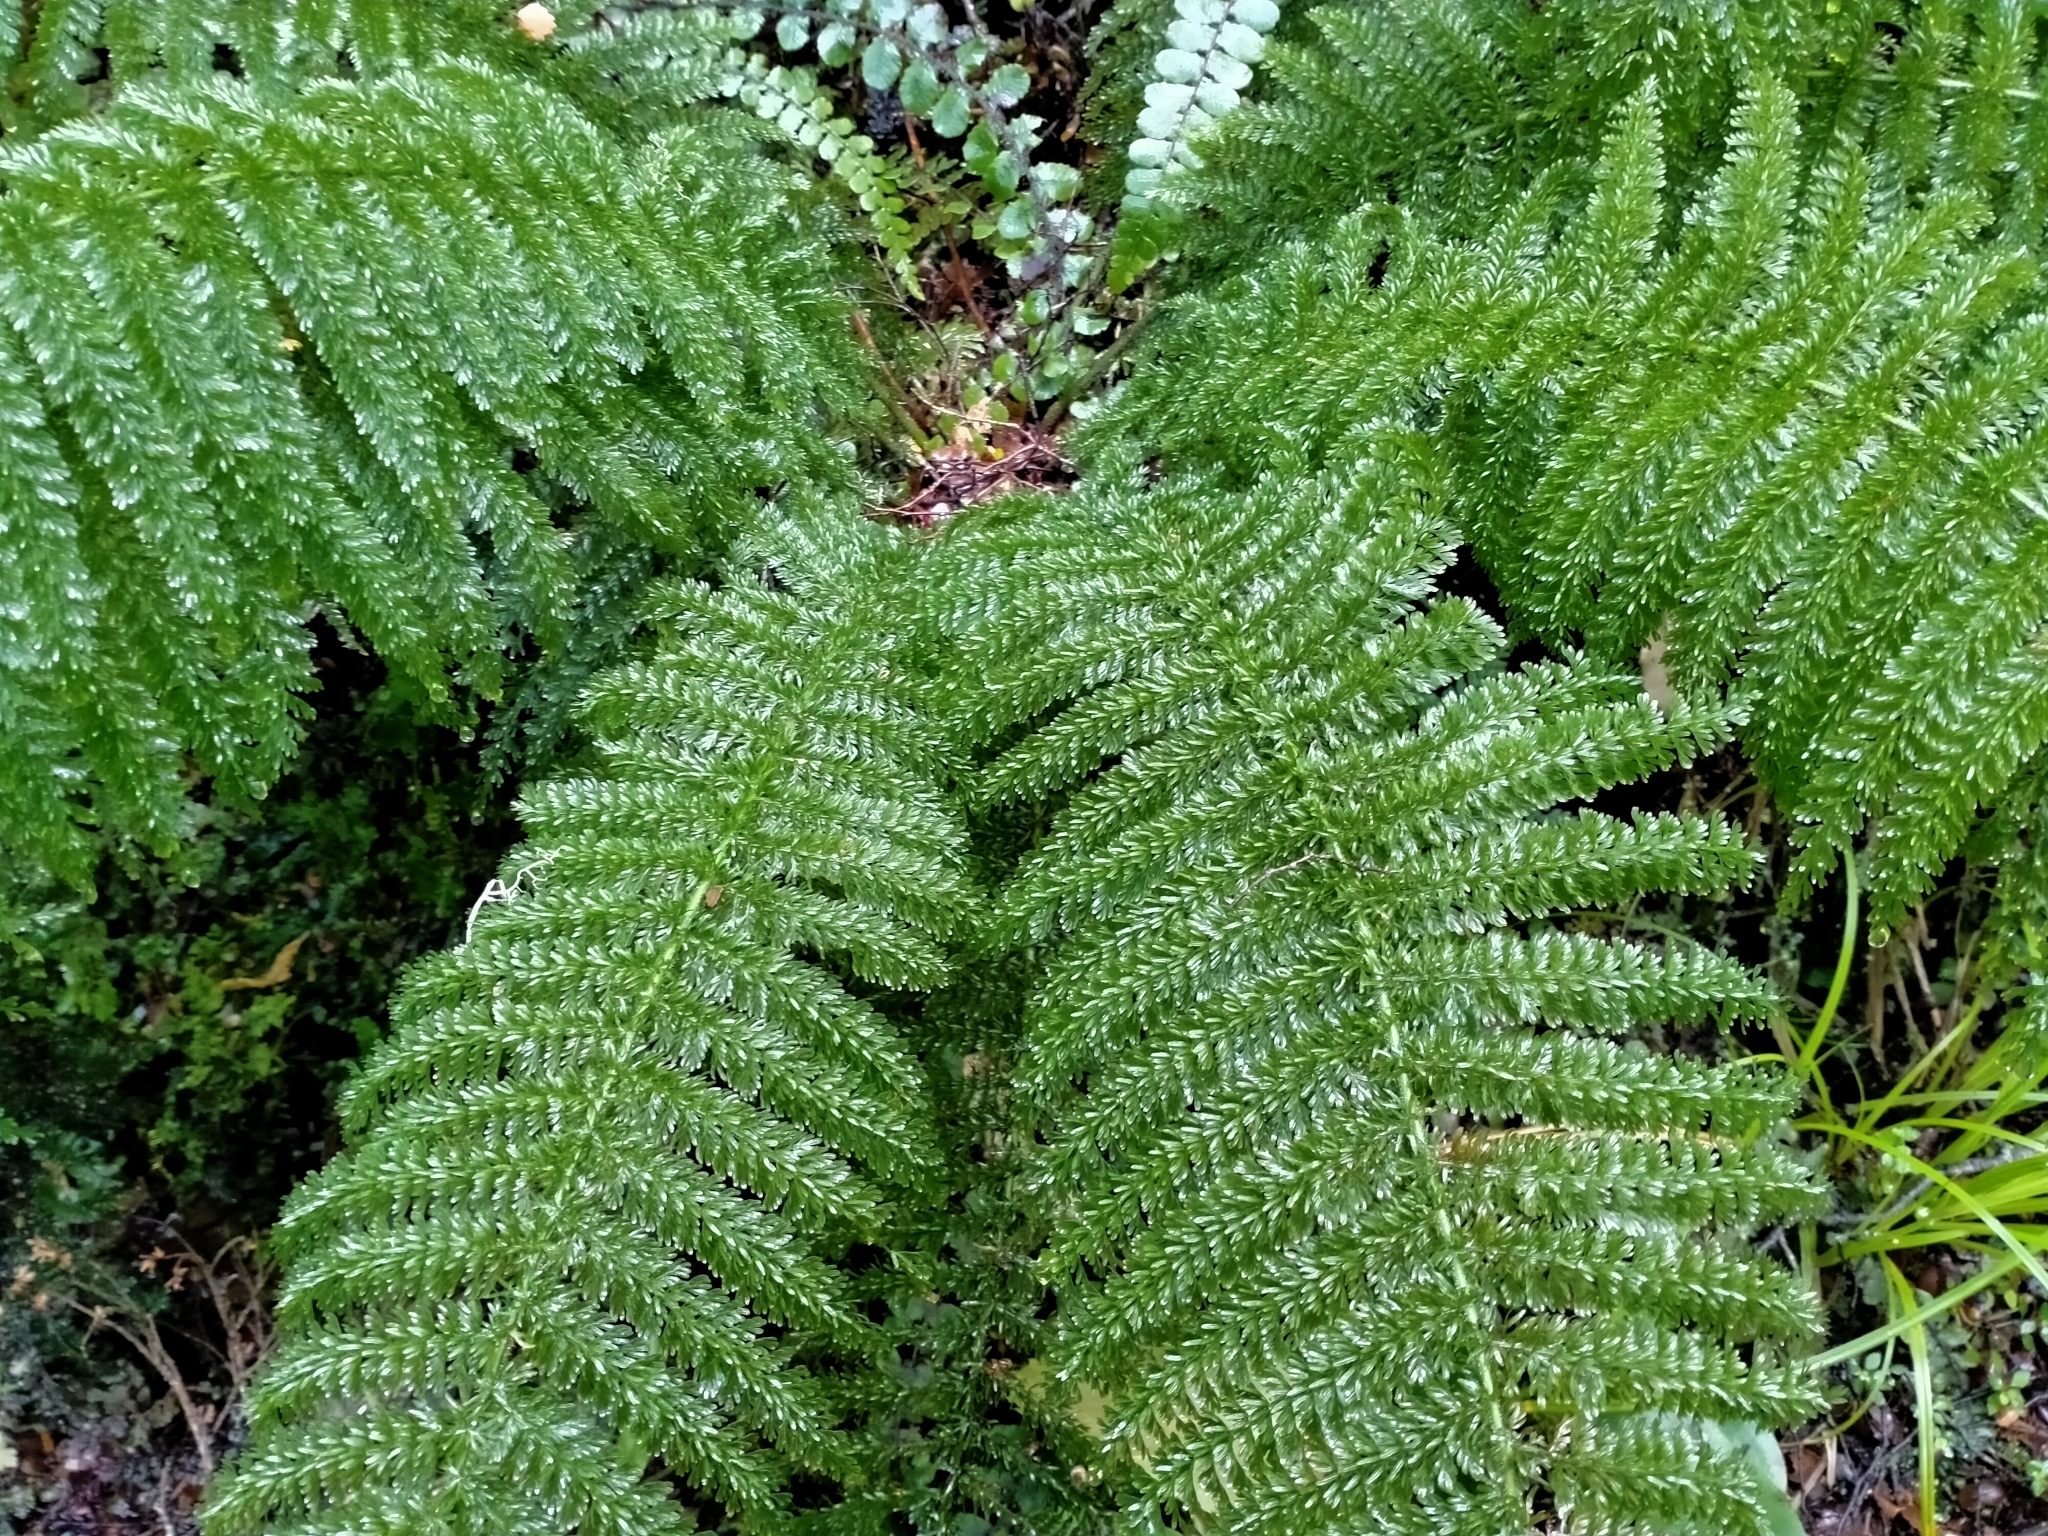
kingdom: Plantae
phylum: Tracheophyta
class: Polypodiopsida
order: Osmundales
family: Osmundaceae
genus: Leptopteris
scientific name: Leptopteris superba
